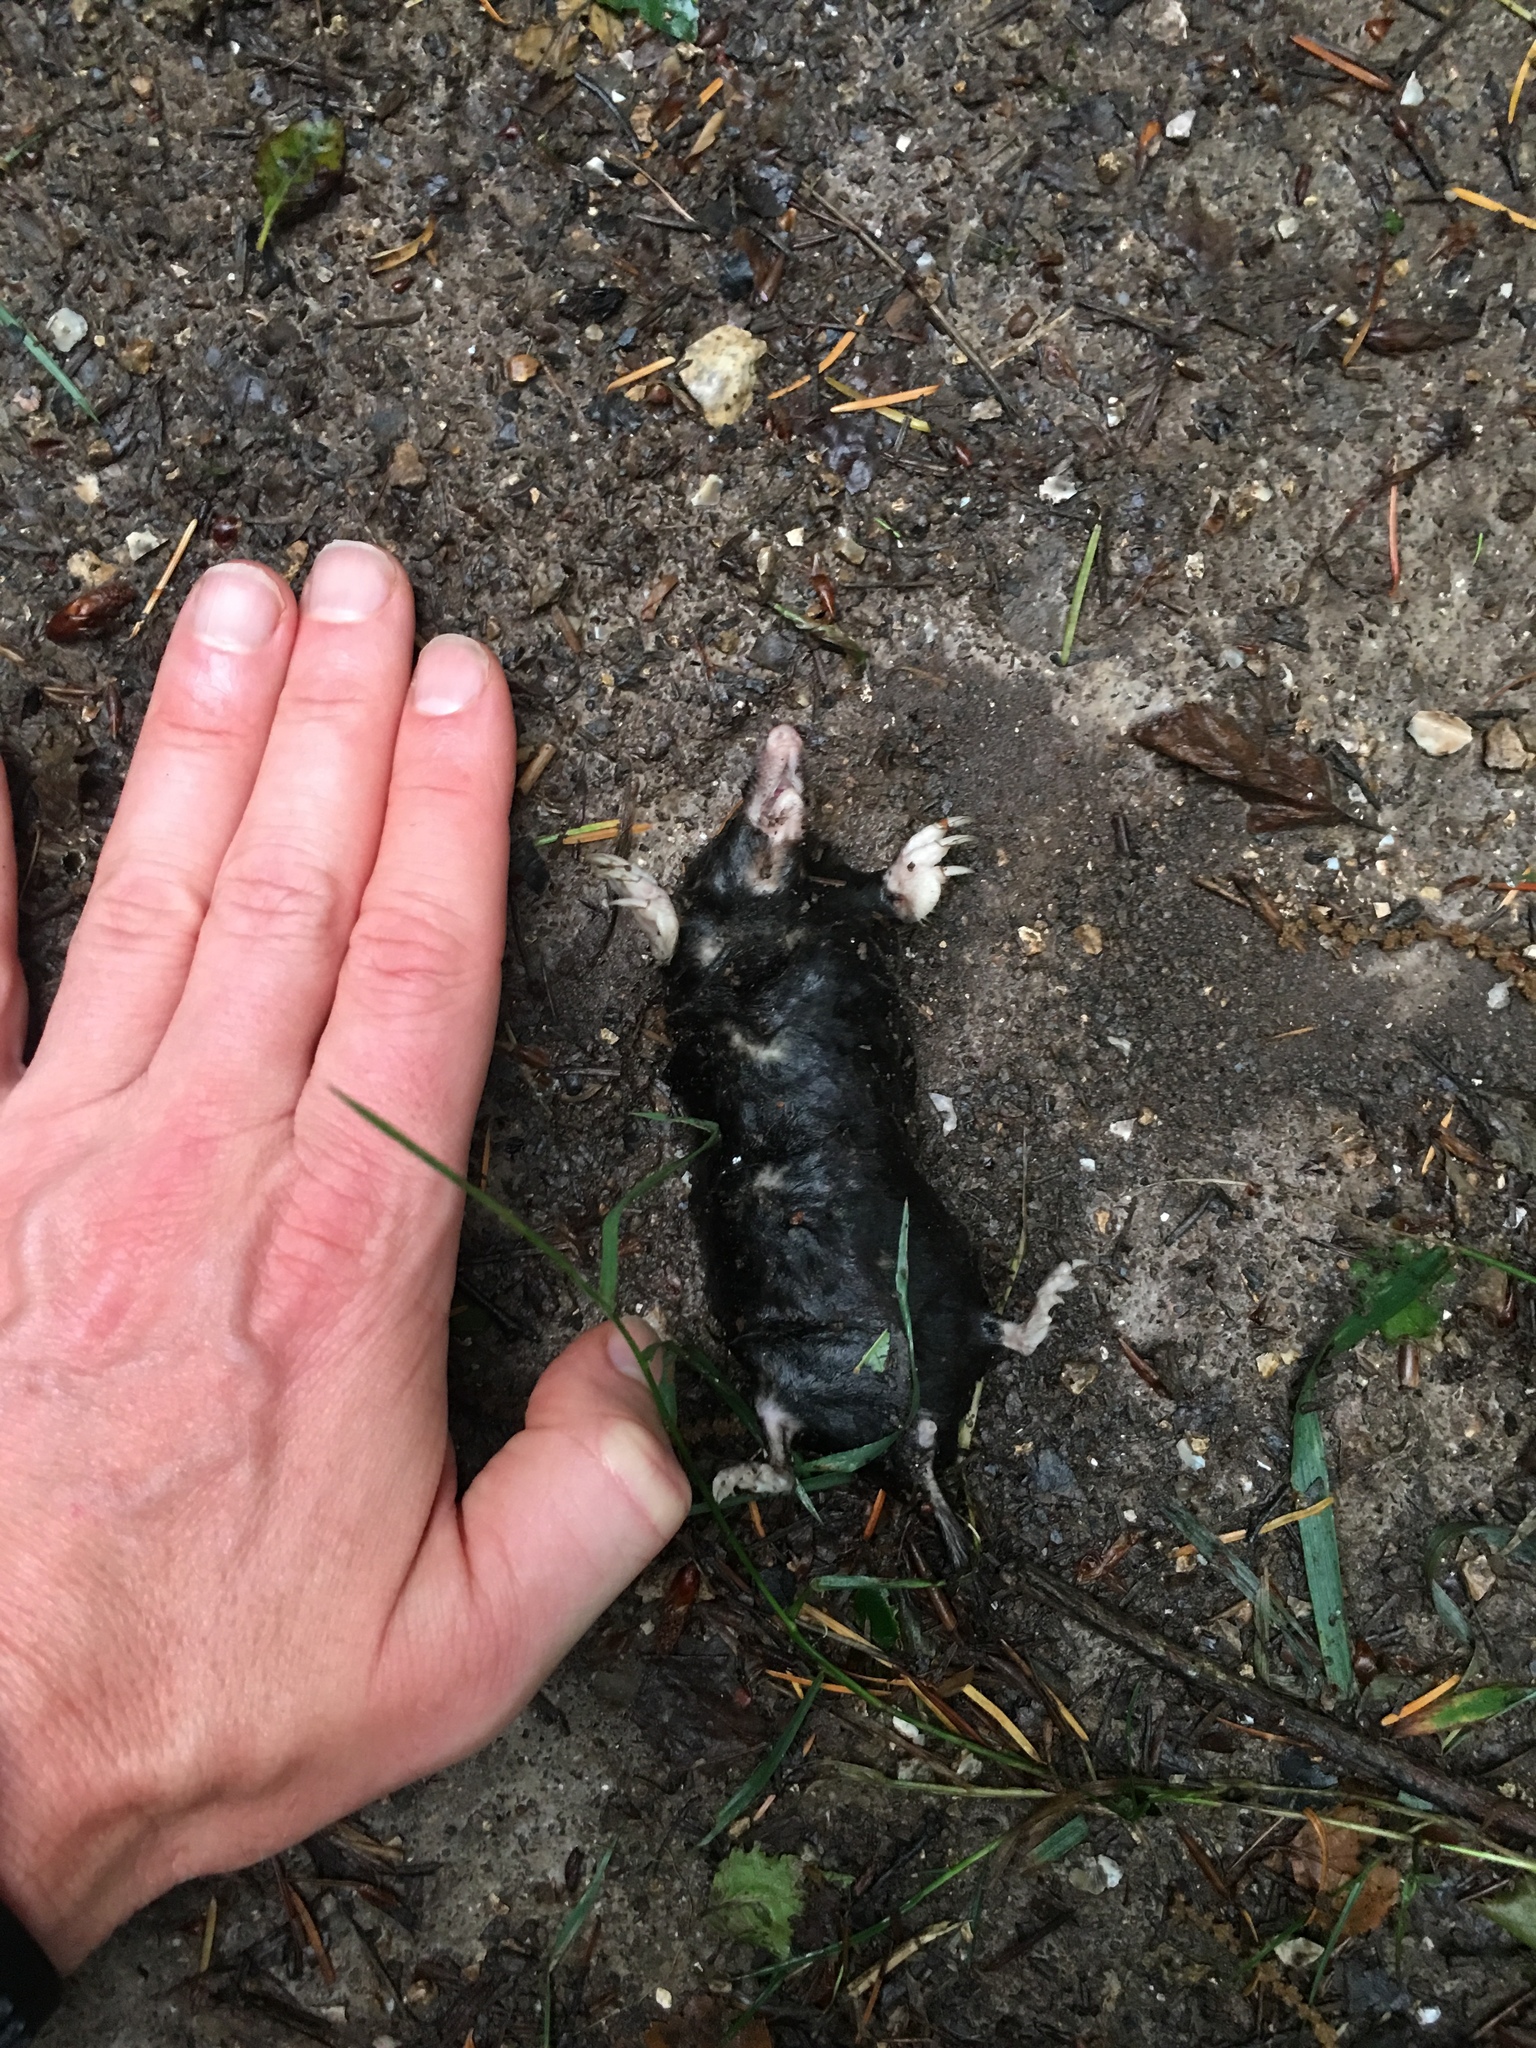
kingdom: Animalia
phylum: Chordata
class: Mammalia
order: Soricomorpha
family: Talpidae
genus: Talpa
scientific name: Talpa europaea
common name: European mole
